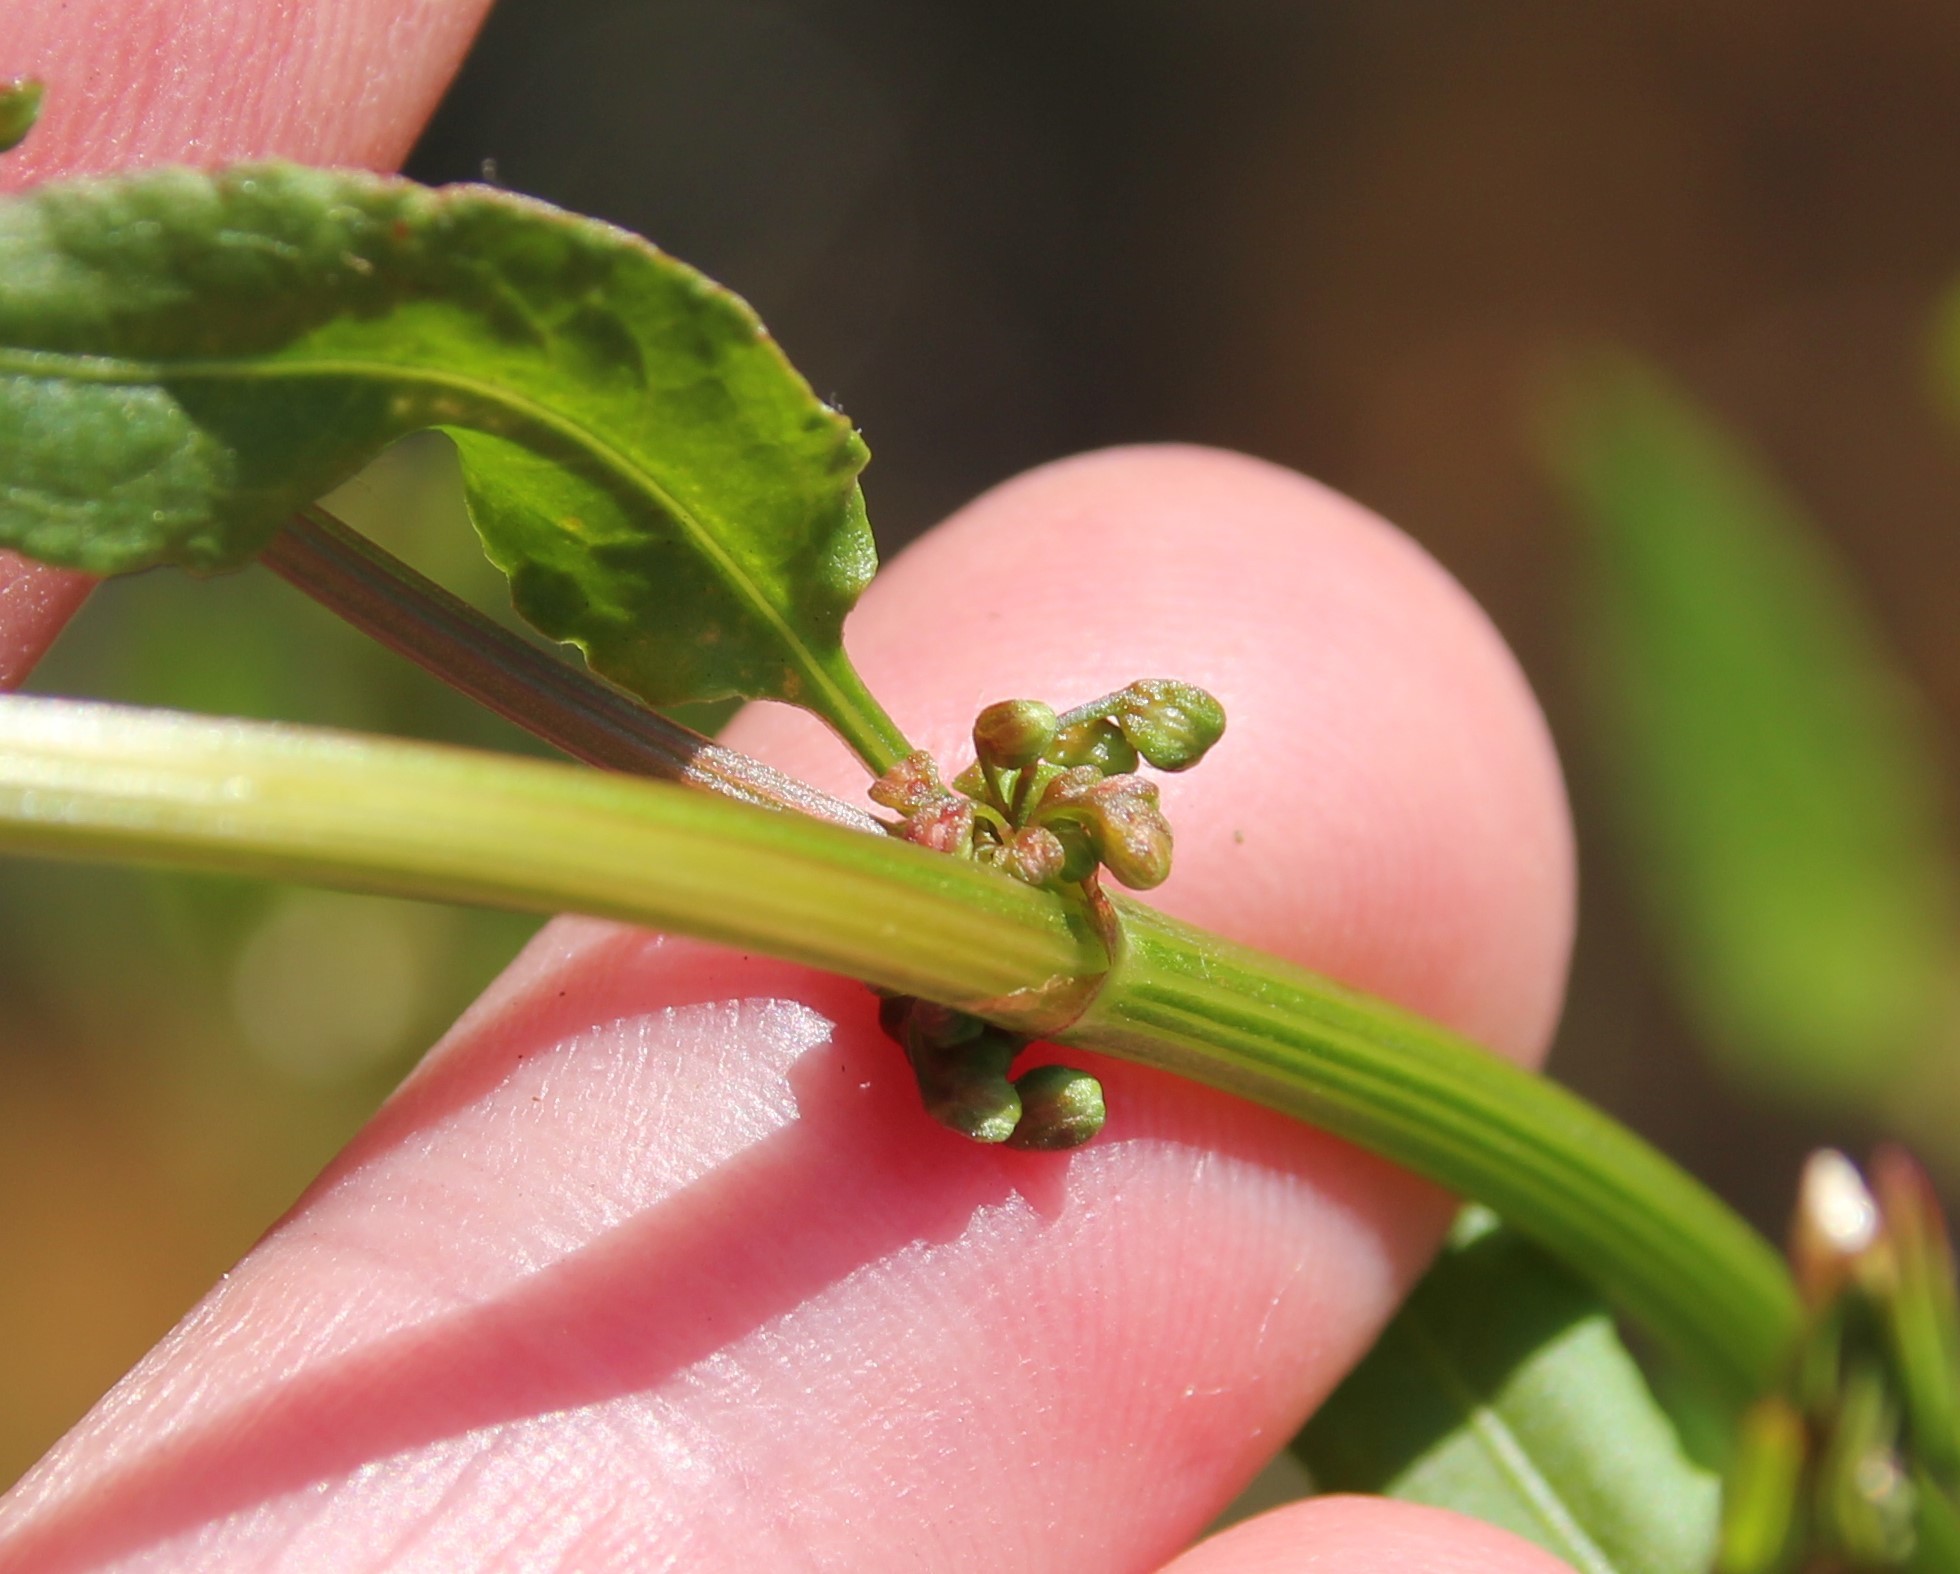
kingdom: Plantae
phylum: Tracheophyta
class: Magnoliopsida
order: Caryophyllales
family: Polygonaceae
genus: Rumex
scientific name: Rumex conglomeratus
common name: Clustered dock
